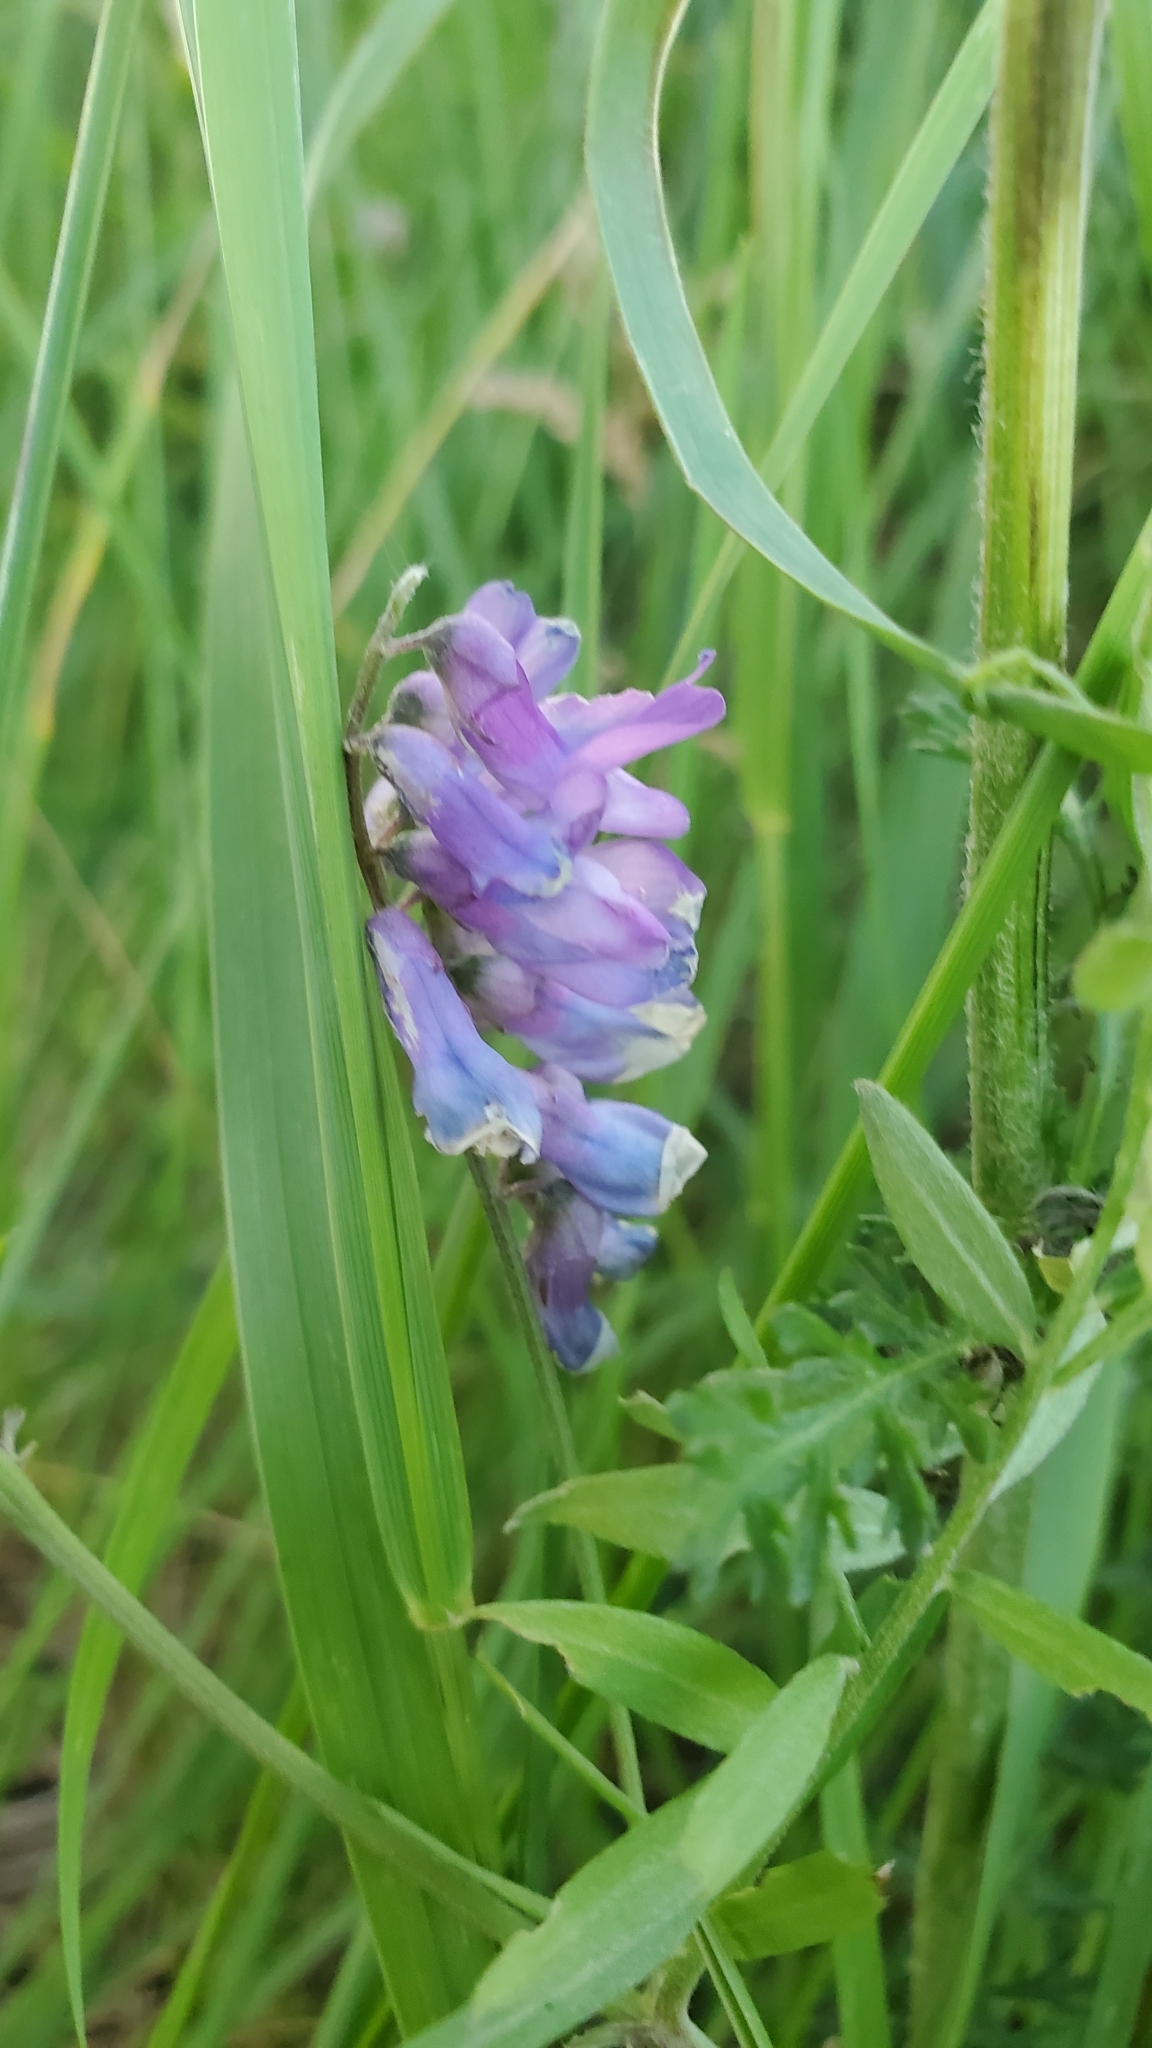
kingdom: Plantae
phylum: Tracheophyta
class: Magnoliopsida
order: Fabales
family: Fabaceae
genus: Vicia
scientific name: Vicia cracca
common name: Bird vetch
